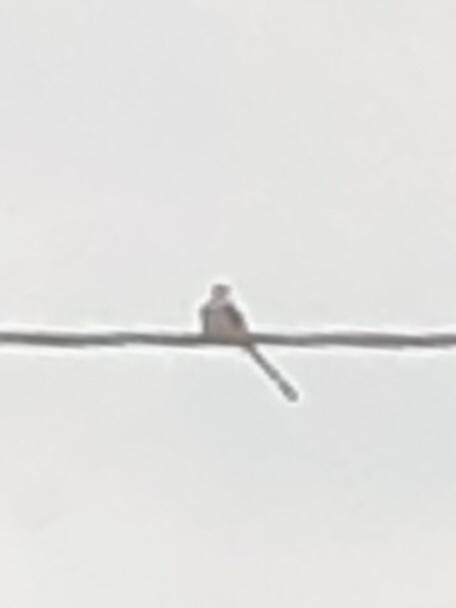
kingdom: Animalia
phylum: Chordata
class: Aves
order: Passeriformes
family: Tyrannidae
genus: Tyrannus
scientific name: Tyrannus forficatus
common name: Scissor-tailed flycatcher
